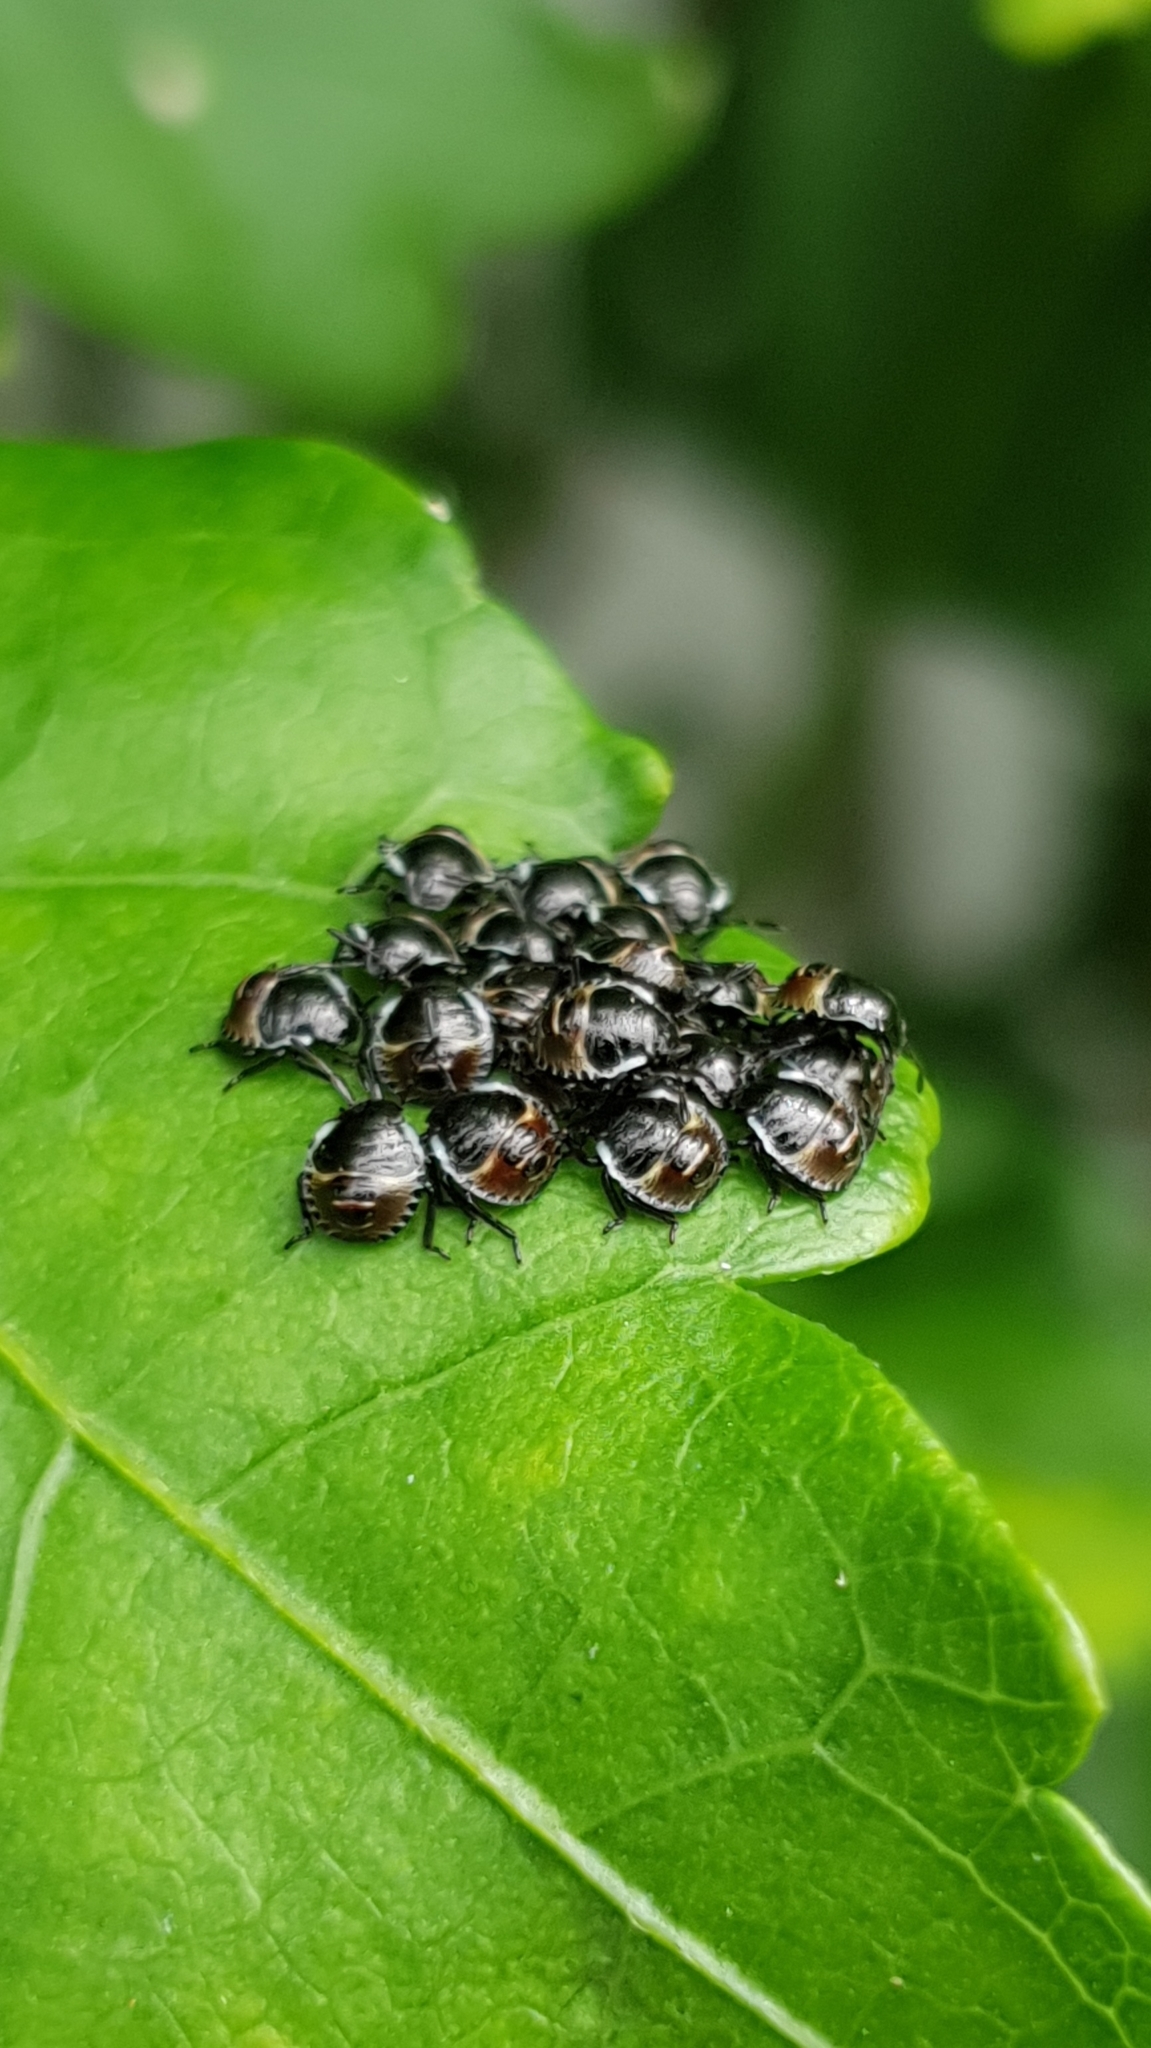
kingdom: Animalia
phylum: Arthropoda
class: Insecta
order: Hemiptera
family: Pentatomidae
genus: Palomena
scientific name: Palomena prasina
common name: Green shieldbug
